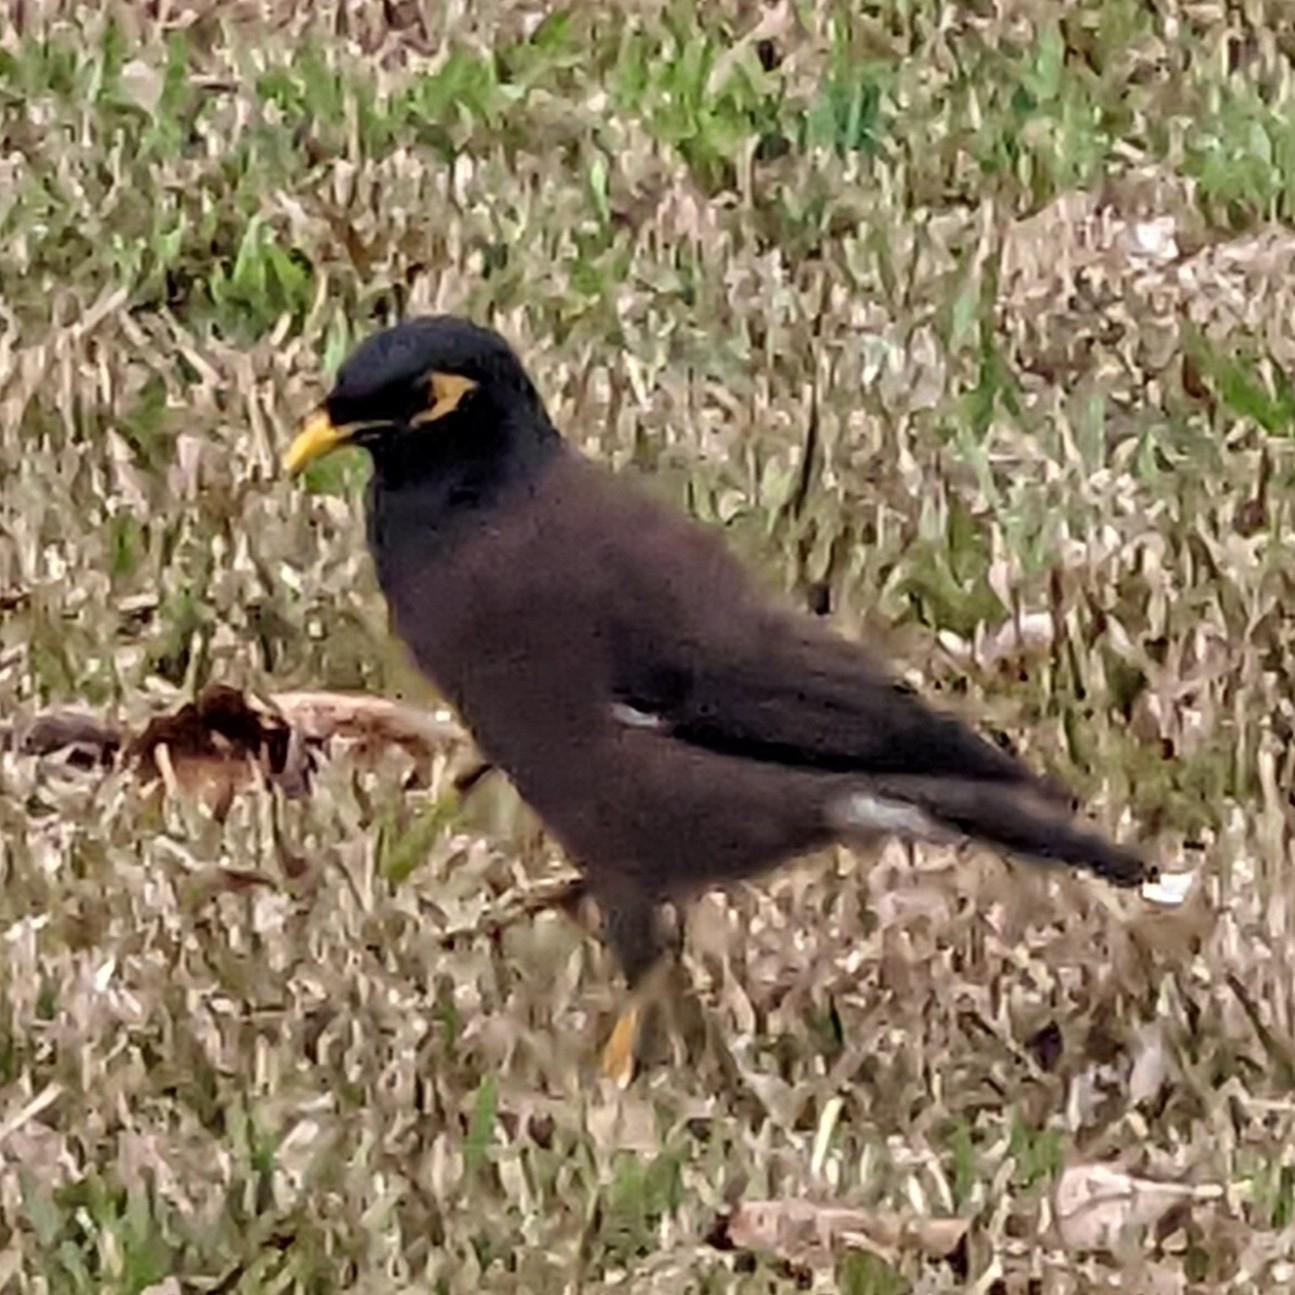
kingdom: Animalia
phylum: Chordata
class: Aves
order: Passeriformes
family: Sturnidae
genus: Acridotheres
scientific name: Acridotheres tristis
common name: Common myna
